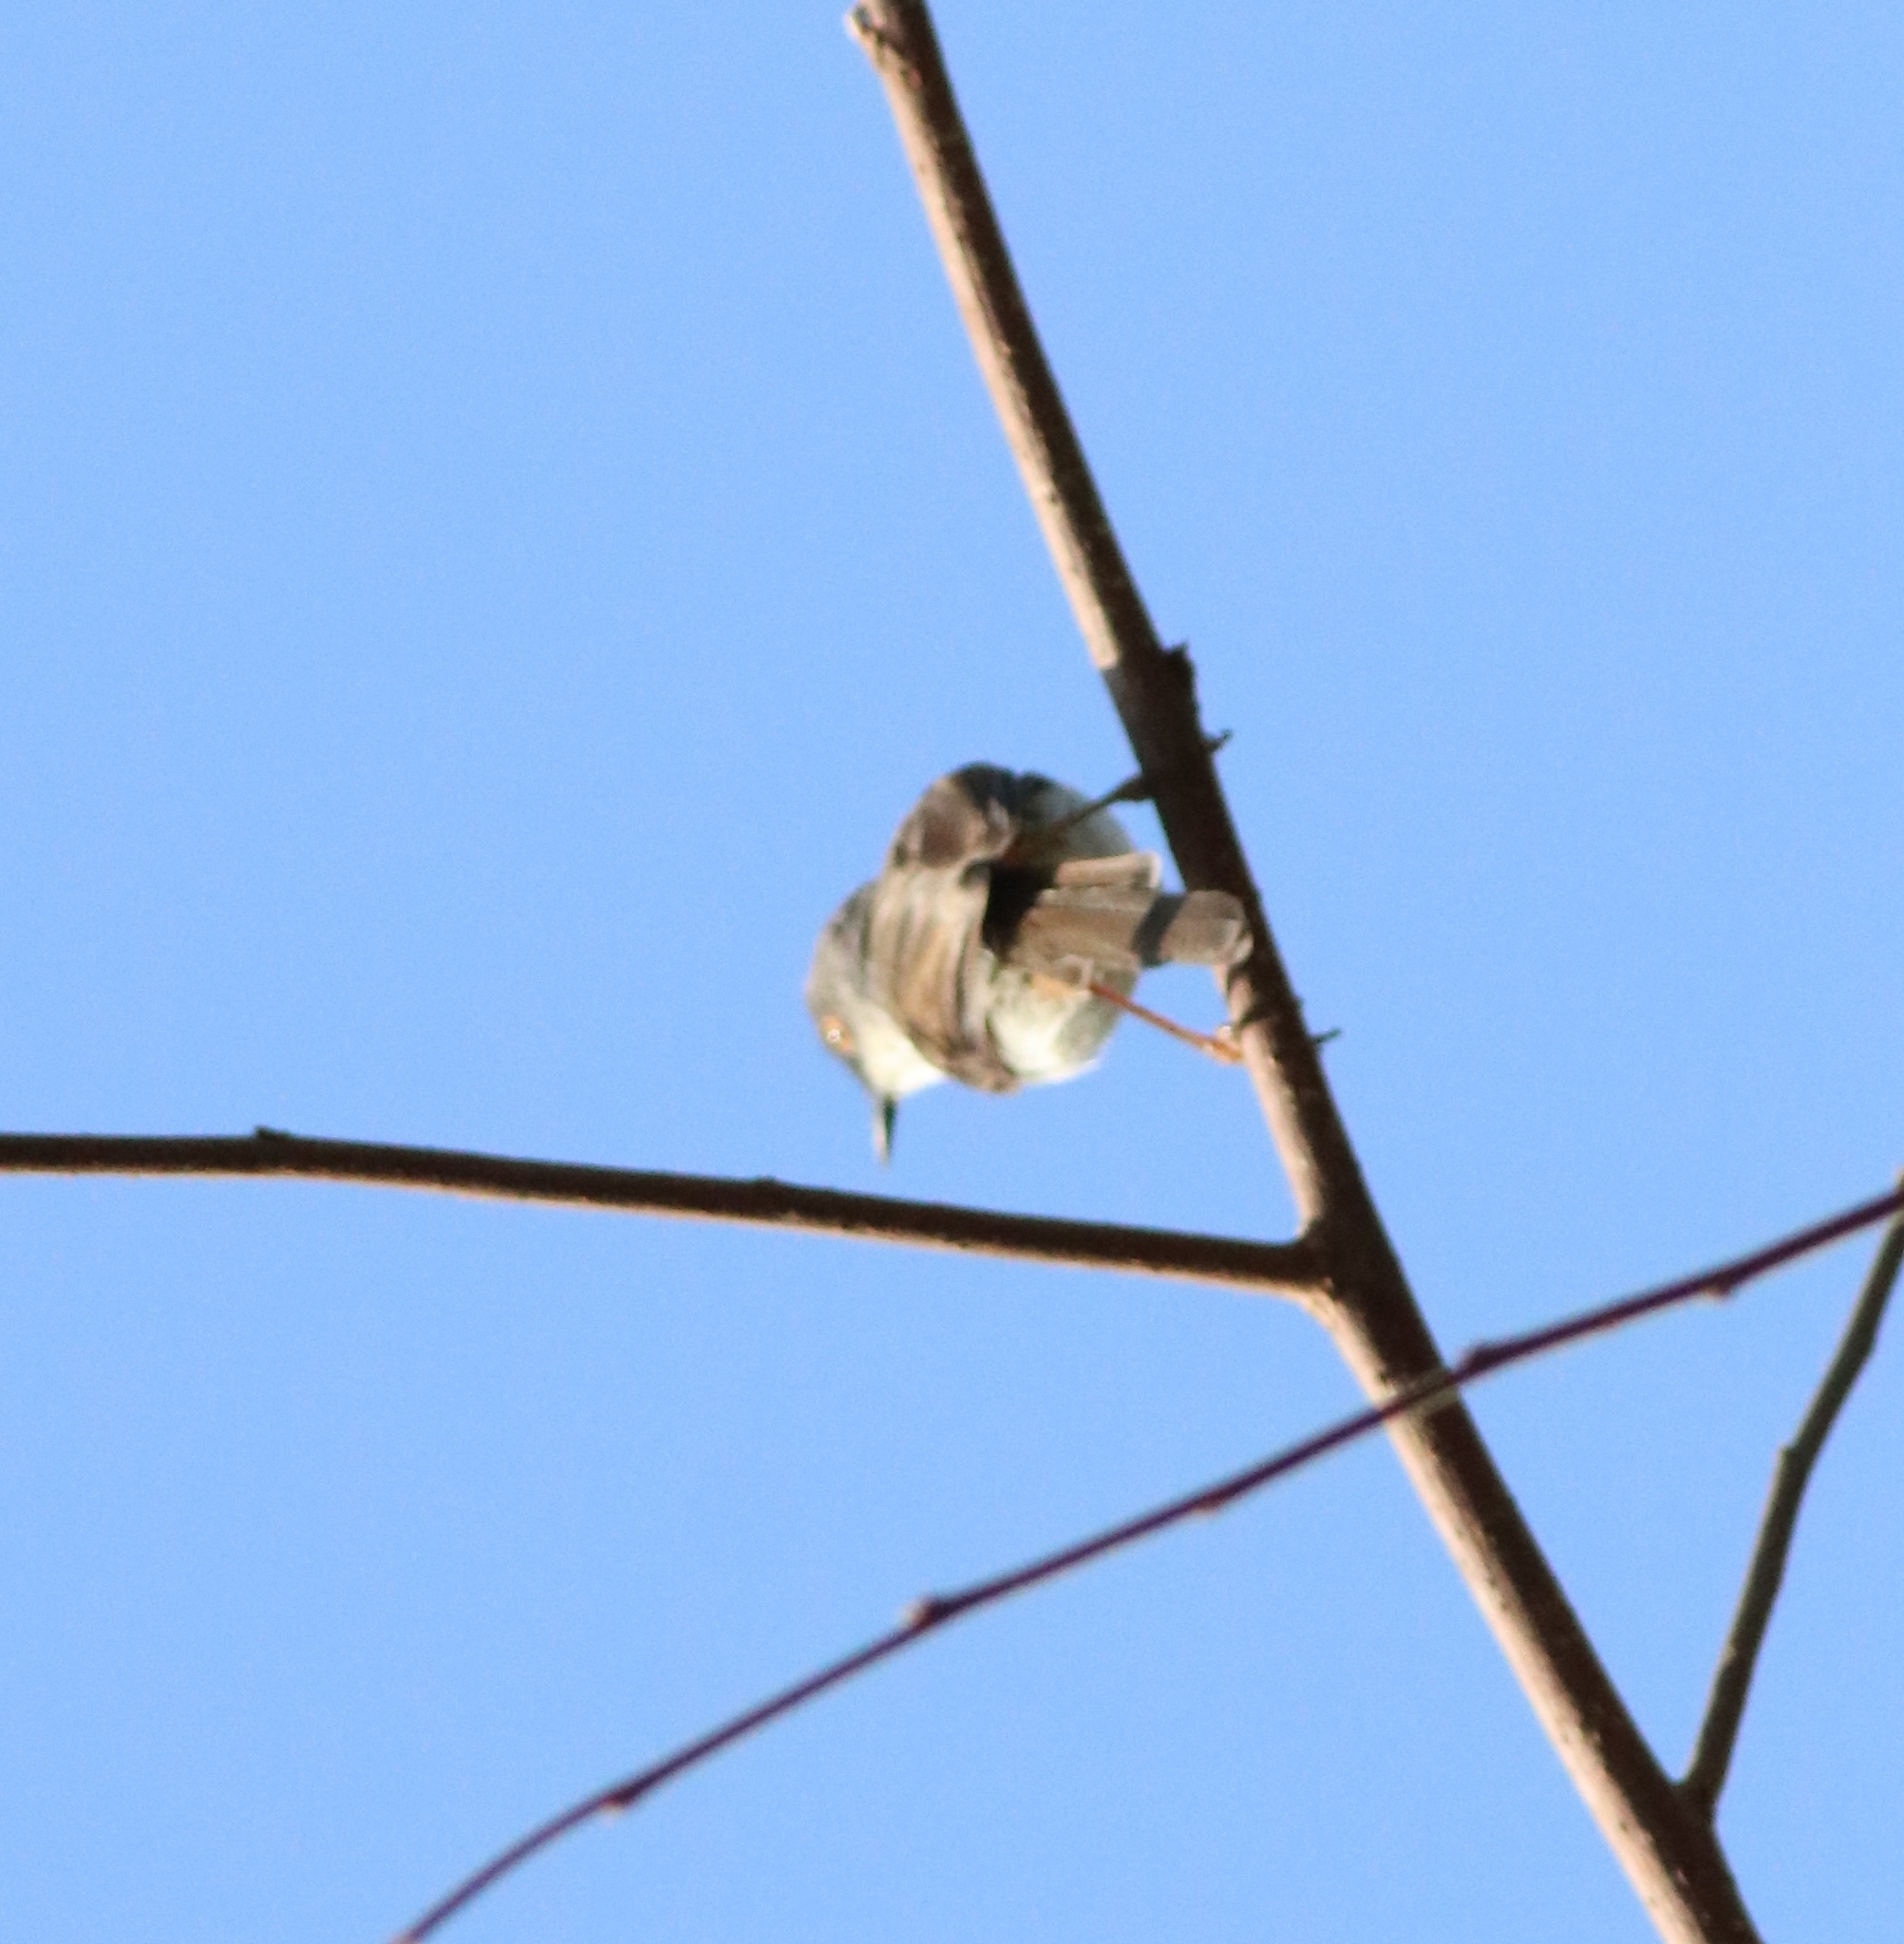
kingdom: Animalia
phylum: Chordata
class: Aves
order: Passeriformes
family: Cisticolidae
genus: Prinia
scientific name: Prinia hodgsonii
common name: Grey-breasted prinia
